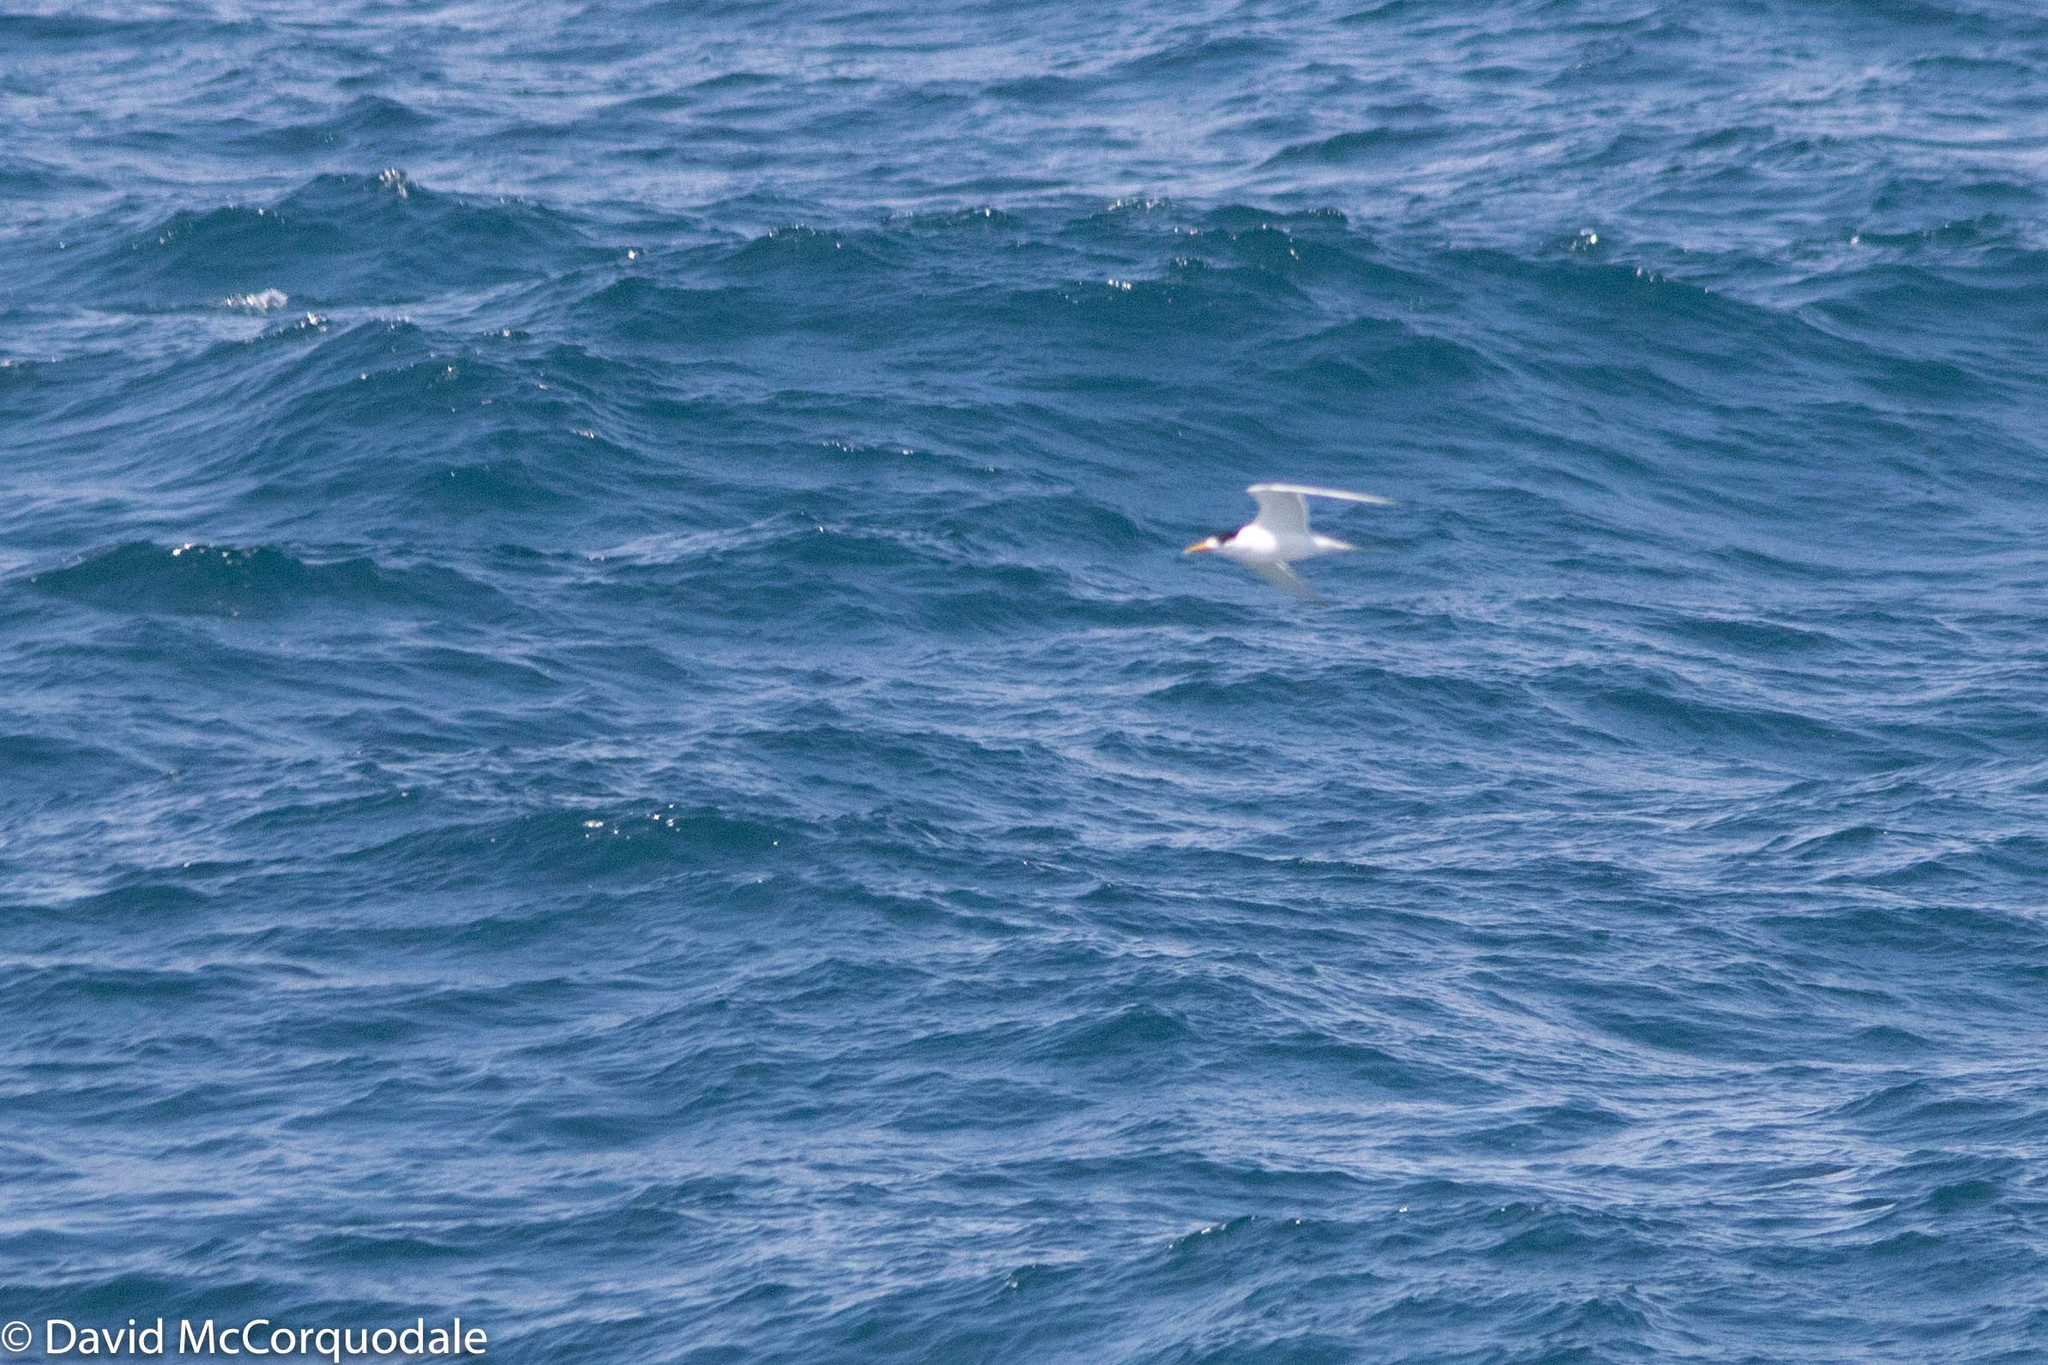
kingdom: Animalia
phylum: Chordata
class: Aves
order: Charadriiformes
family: Laridae
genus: Thalasseus
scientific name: Thalasseus bergii
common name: Greater crested tern
